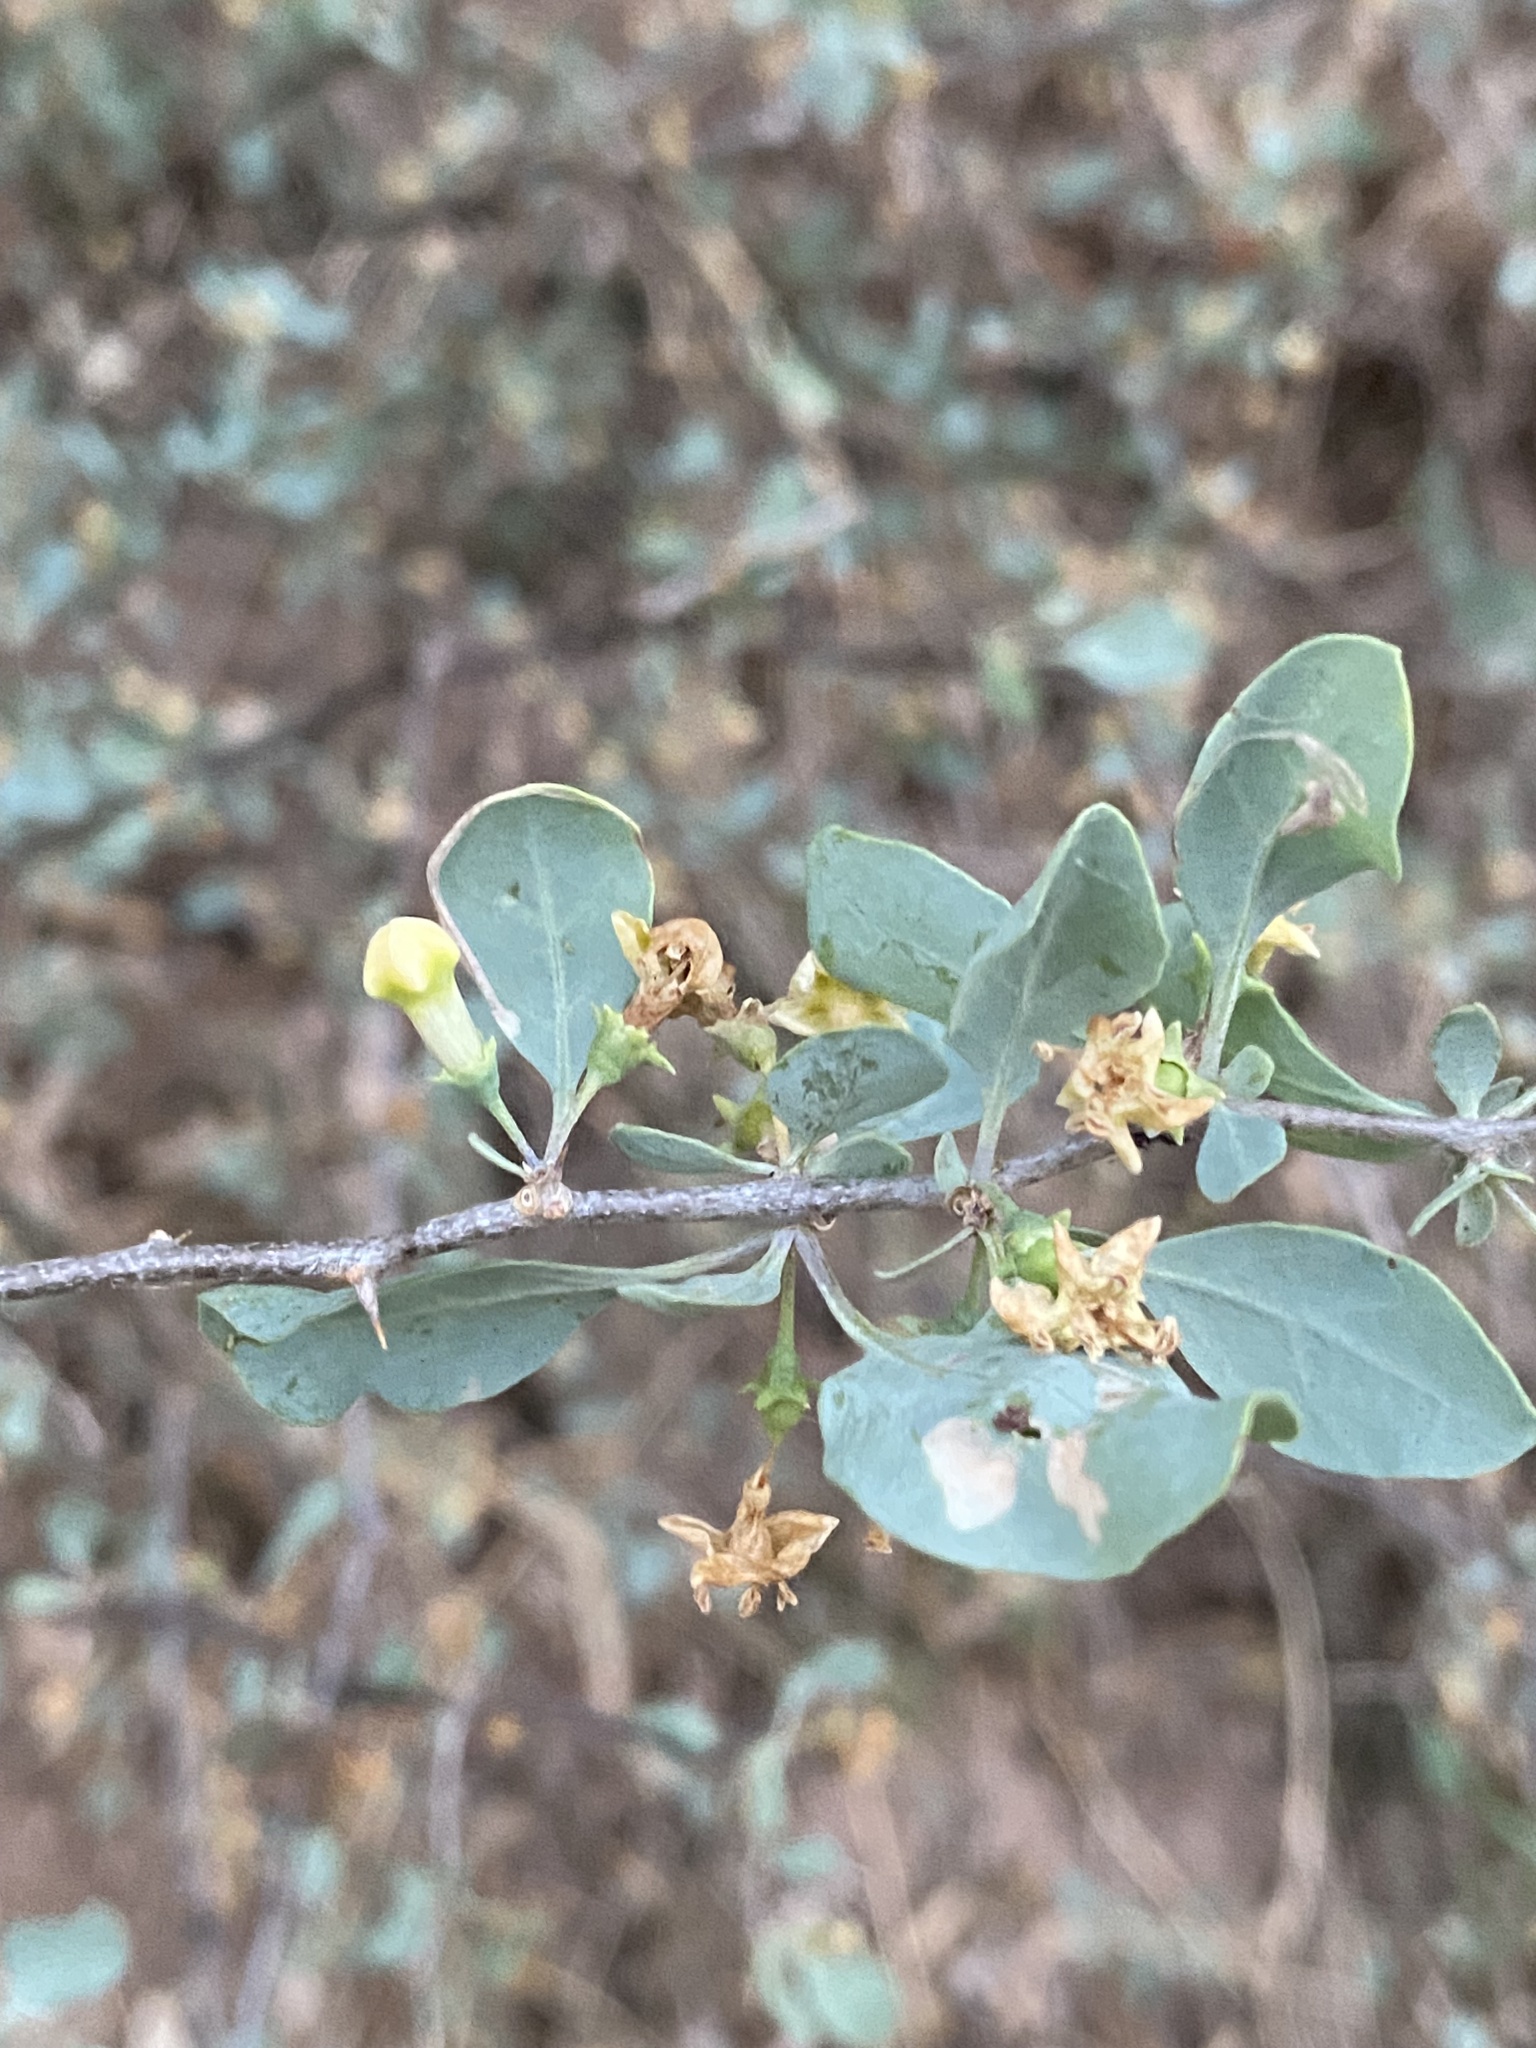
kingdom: Plantae
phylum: Tracheophyta
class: Magnoliopsida
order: Solanales
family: Solanaceae
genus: Lycium
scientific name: Lycium boerhaaviifolium
